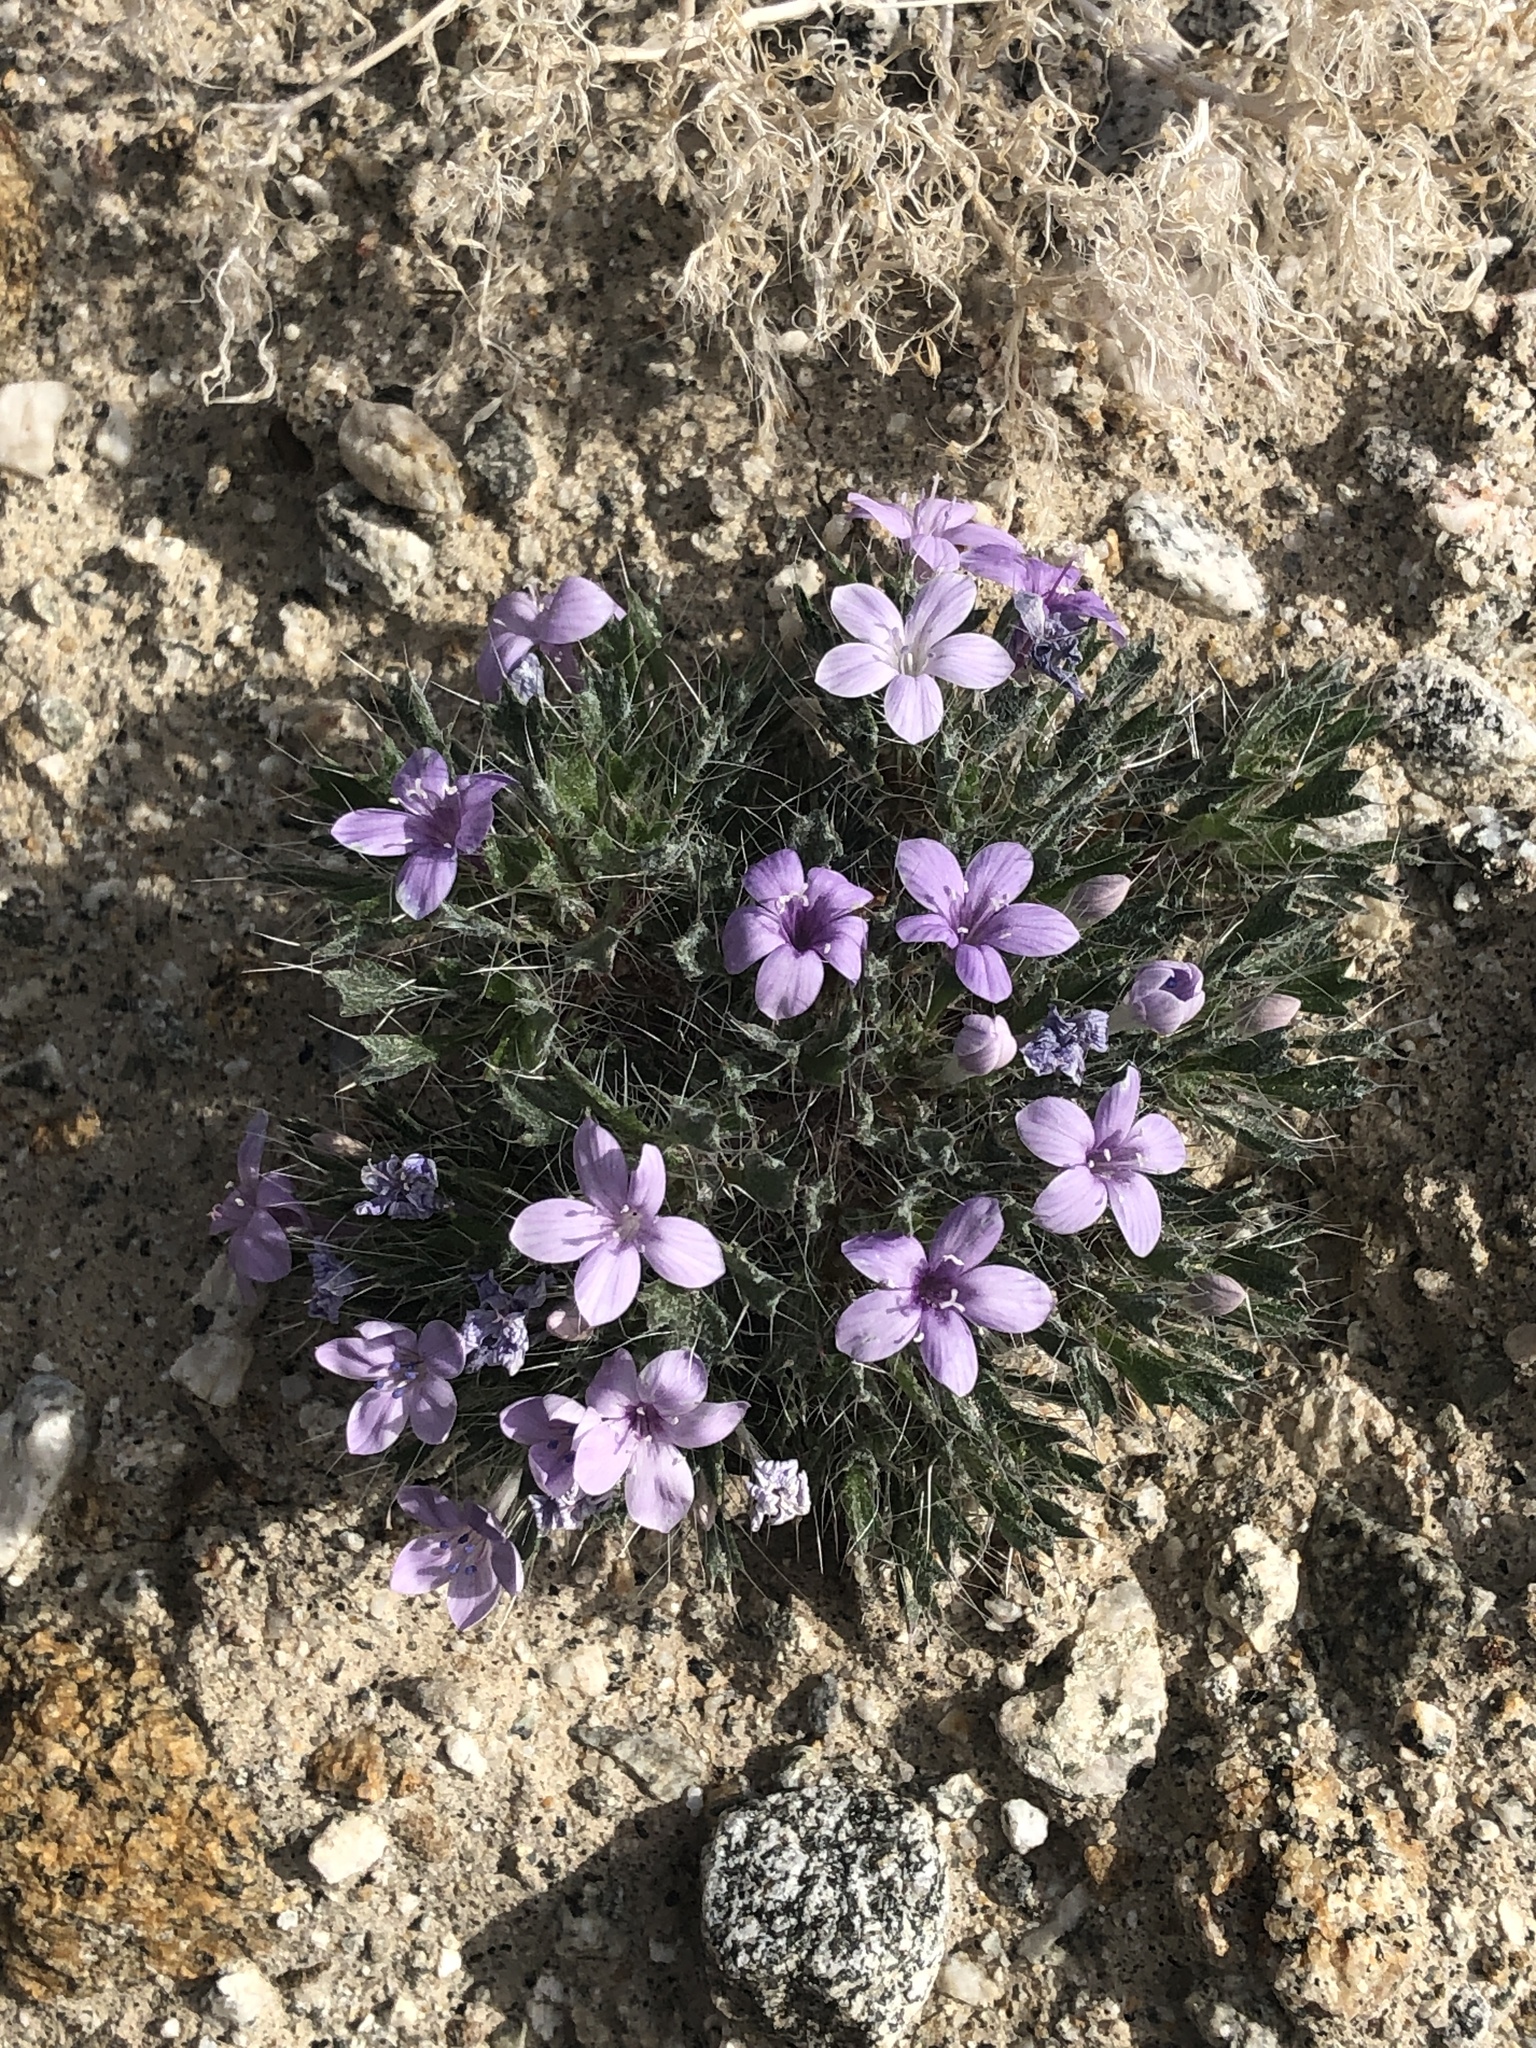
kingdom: Plantae
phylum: Tracheophyta
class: Magnoliopsida
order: Ericales
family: Polemoniaceae
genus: Langloisia
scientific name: Langloisia setosissima
